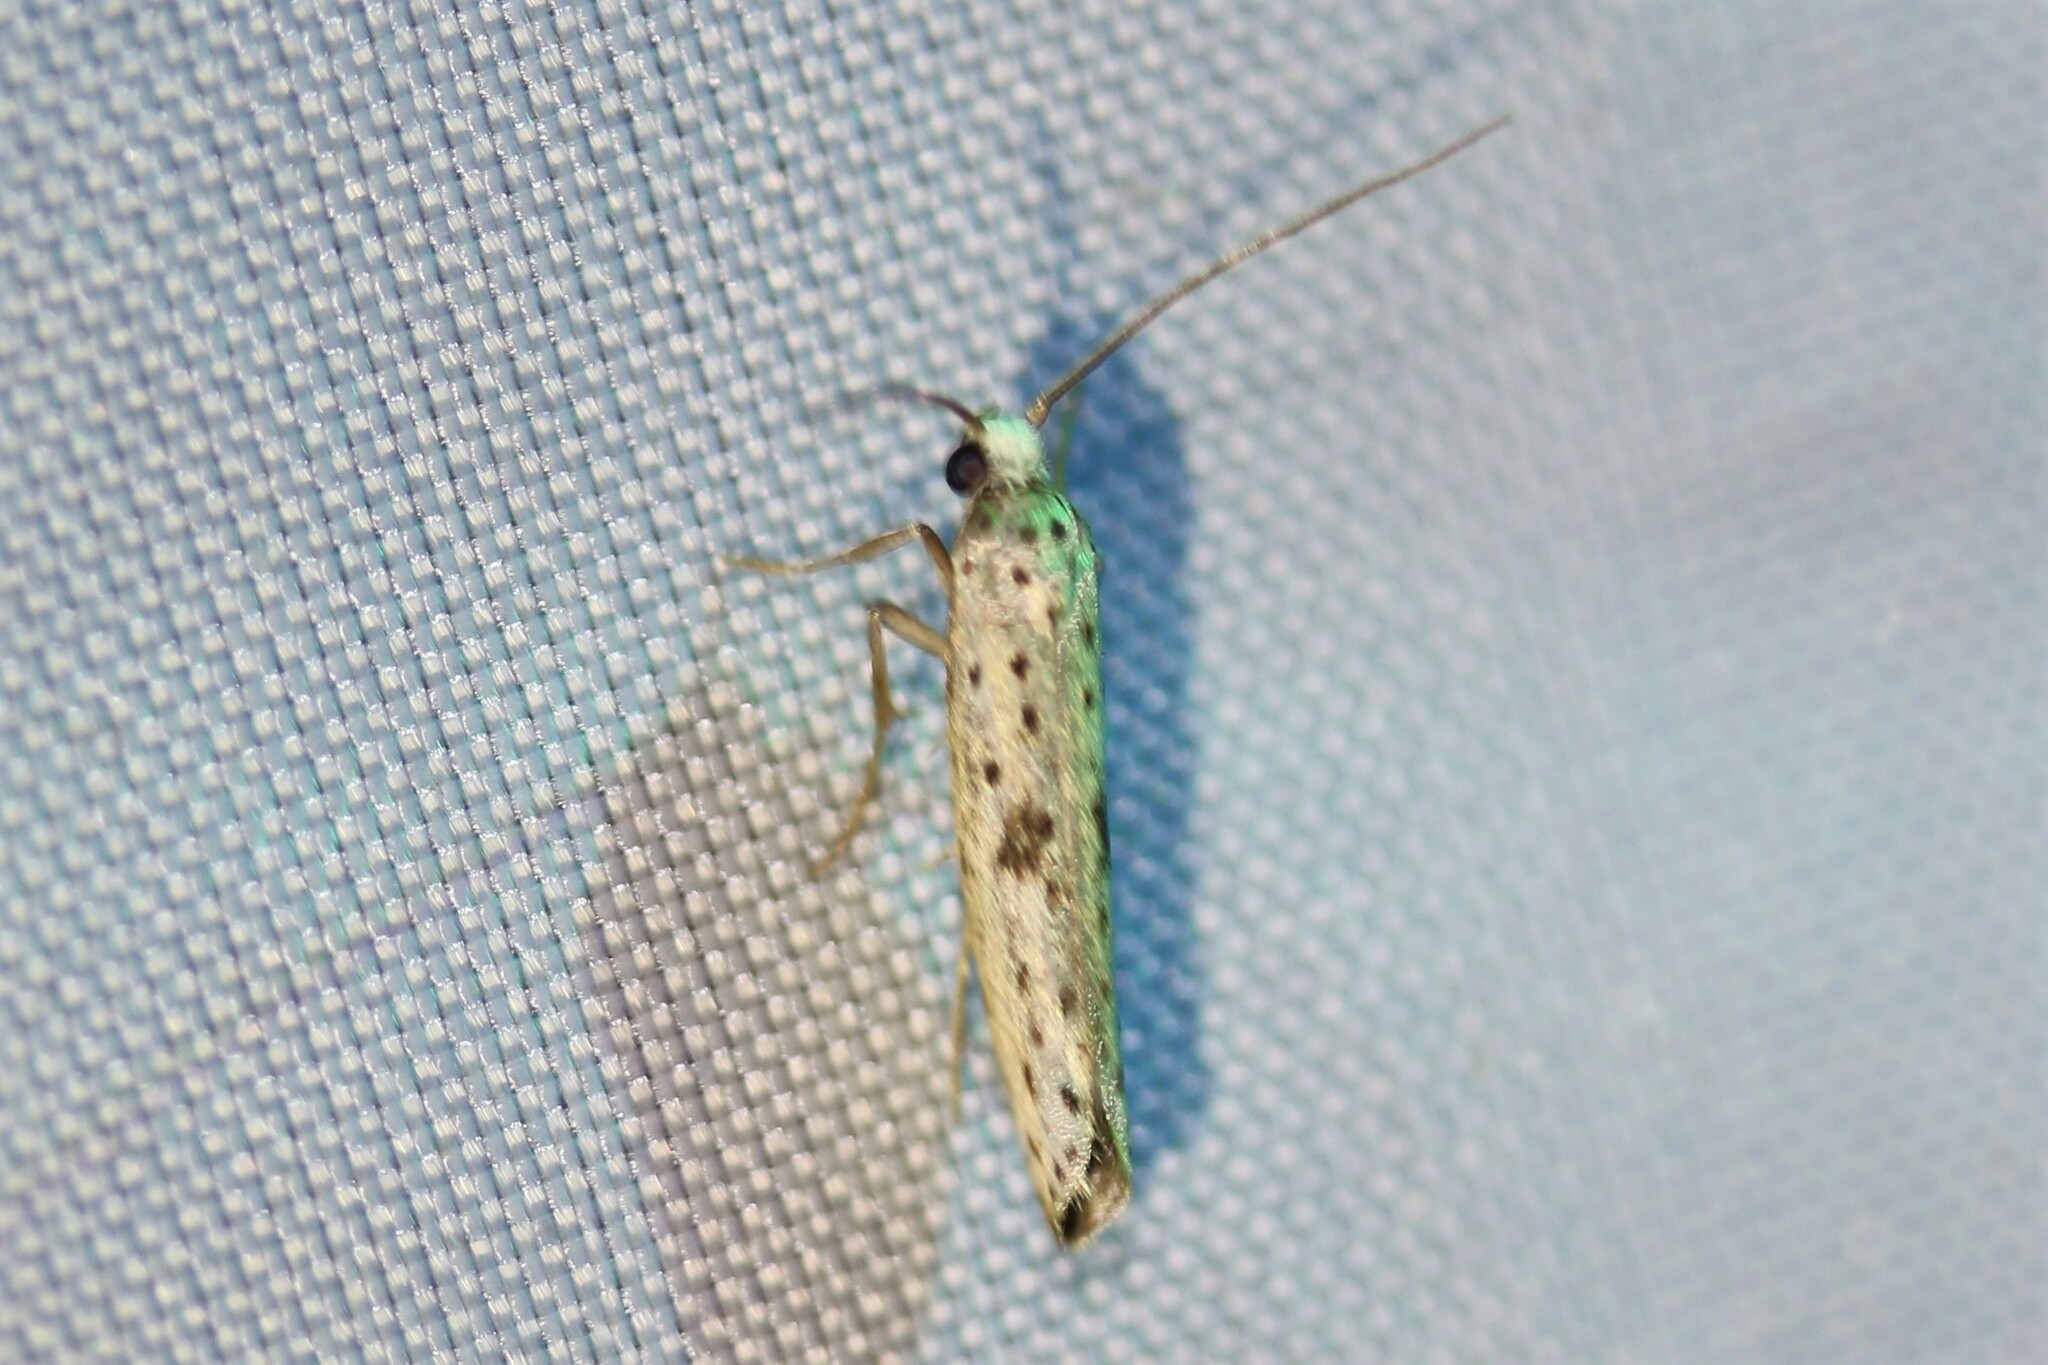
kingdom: Animalia
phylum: Arthropoda
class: Insecta
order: Lepidoptera
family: Yponomeutidae
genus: Yponomeuta
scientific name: Yponomeuta plumbella
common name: Black-tipped ermine
